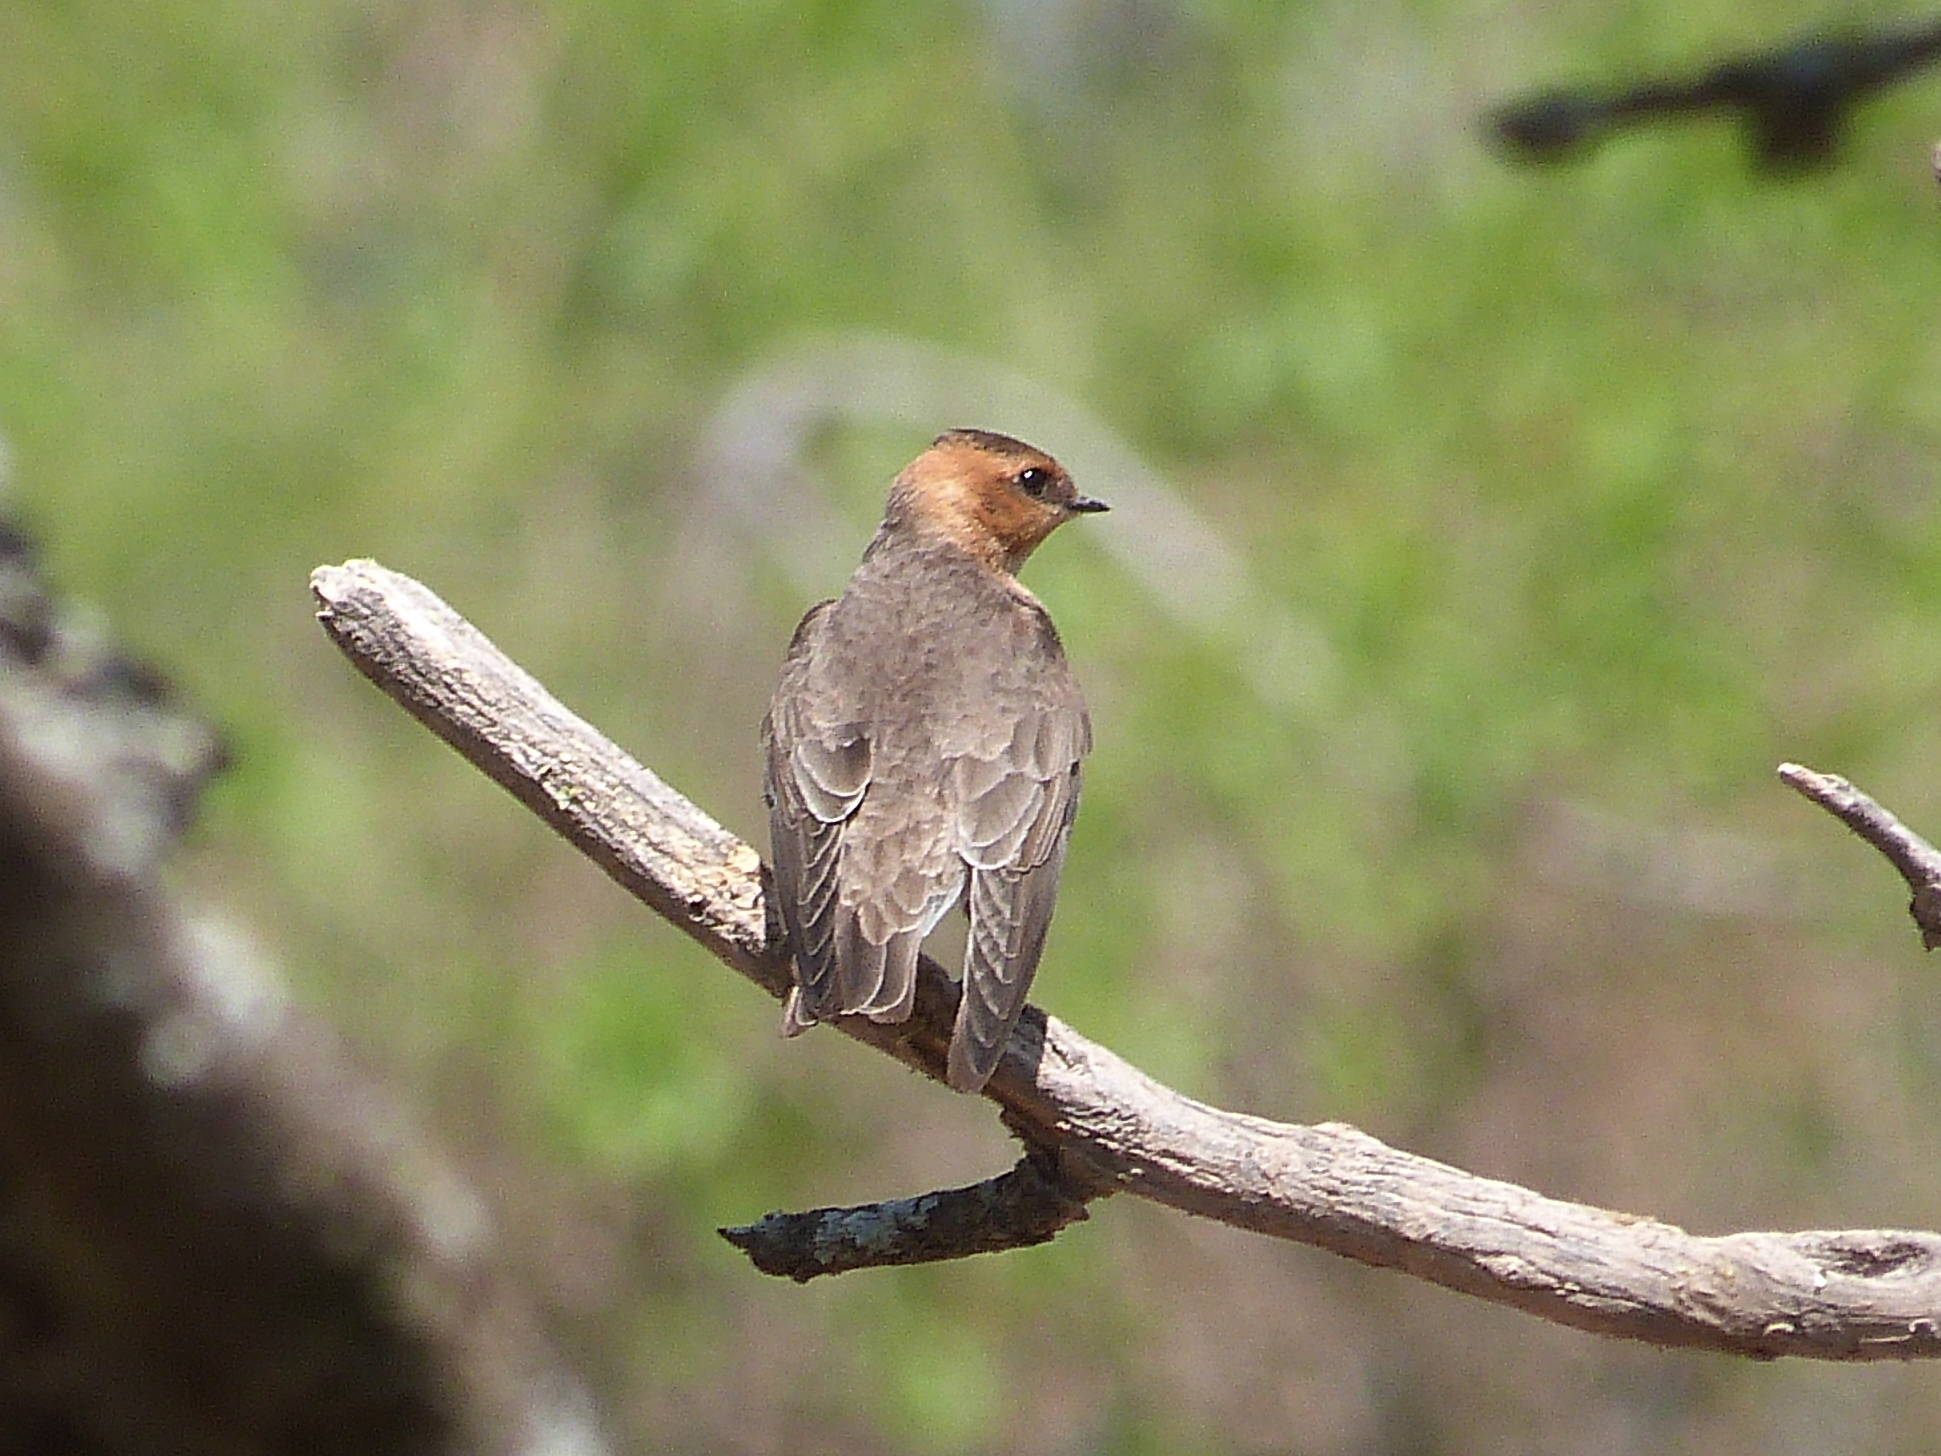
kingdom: Animalia
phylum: Chordata
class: Aves
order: Passeriformes
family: Hirundinidae
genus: Alopochelidon
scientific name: Alopochelidon fucata
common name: Tawny-headed swallow
